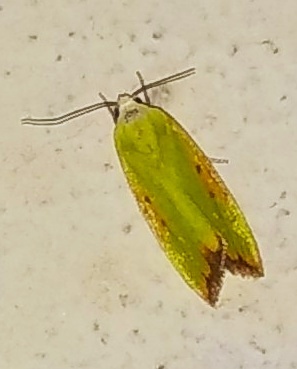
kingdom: Animalia
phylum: Arthropoda
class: Insecta
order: Lepidoptera
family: Nolidae
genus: Earias
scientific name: Earias flavida
